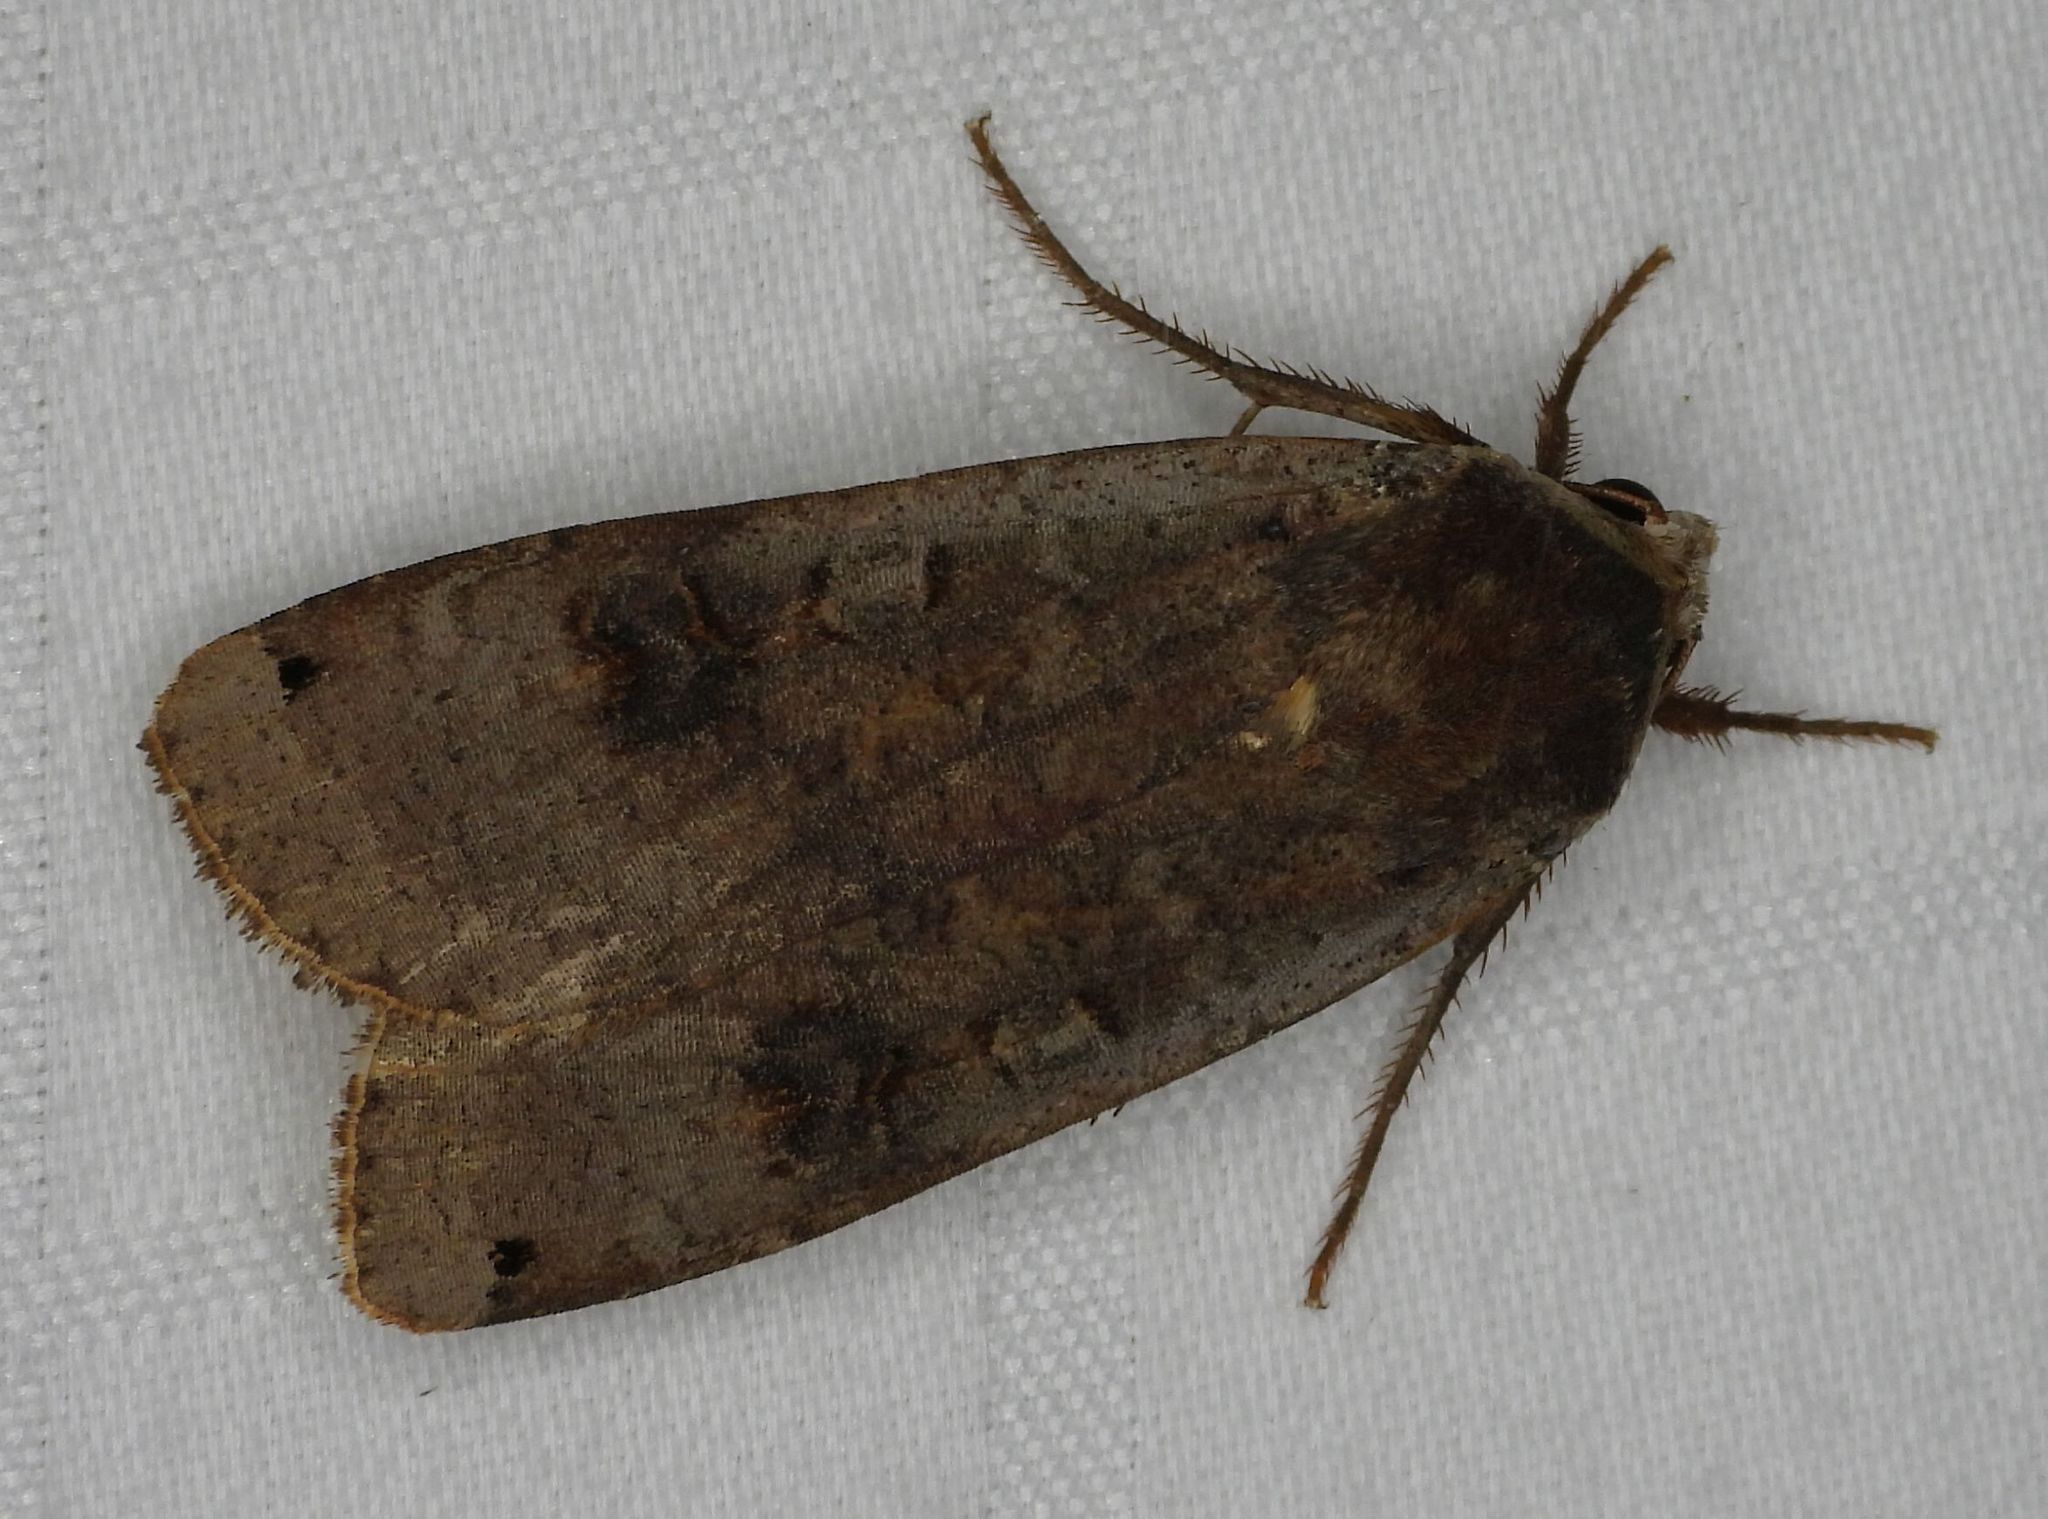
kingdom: Animalia
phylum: Arthropoda
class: Insecta
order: Lepidoptera
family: Noctuidae
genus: Noctua
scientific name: Noctua pronuba
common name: Large yellow underwing
